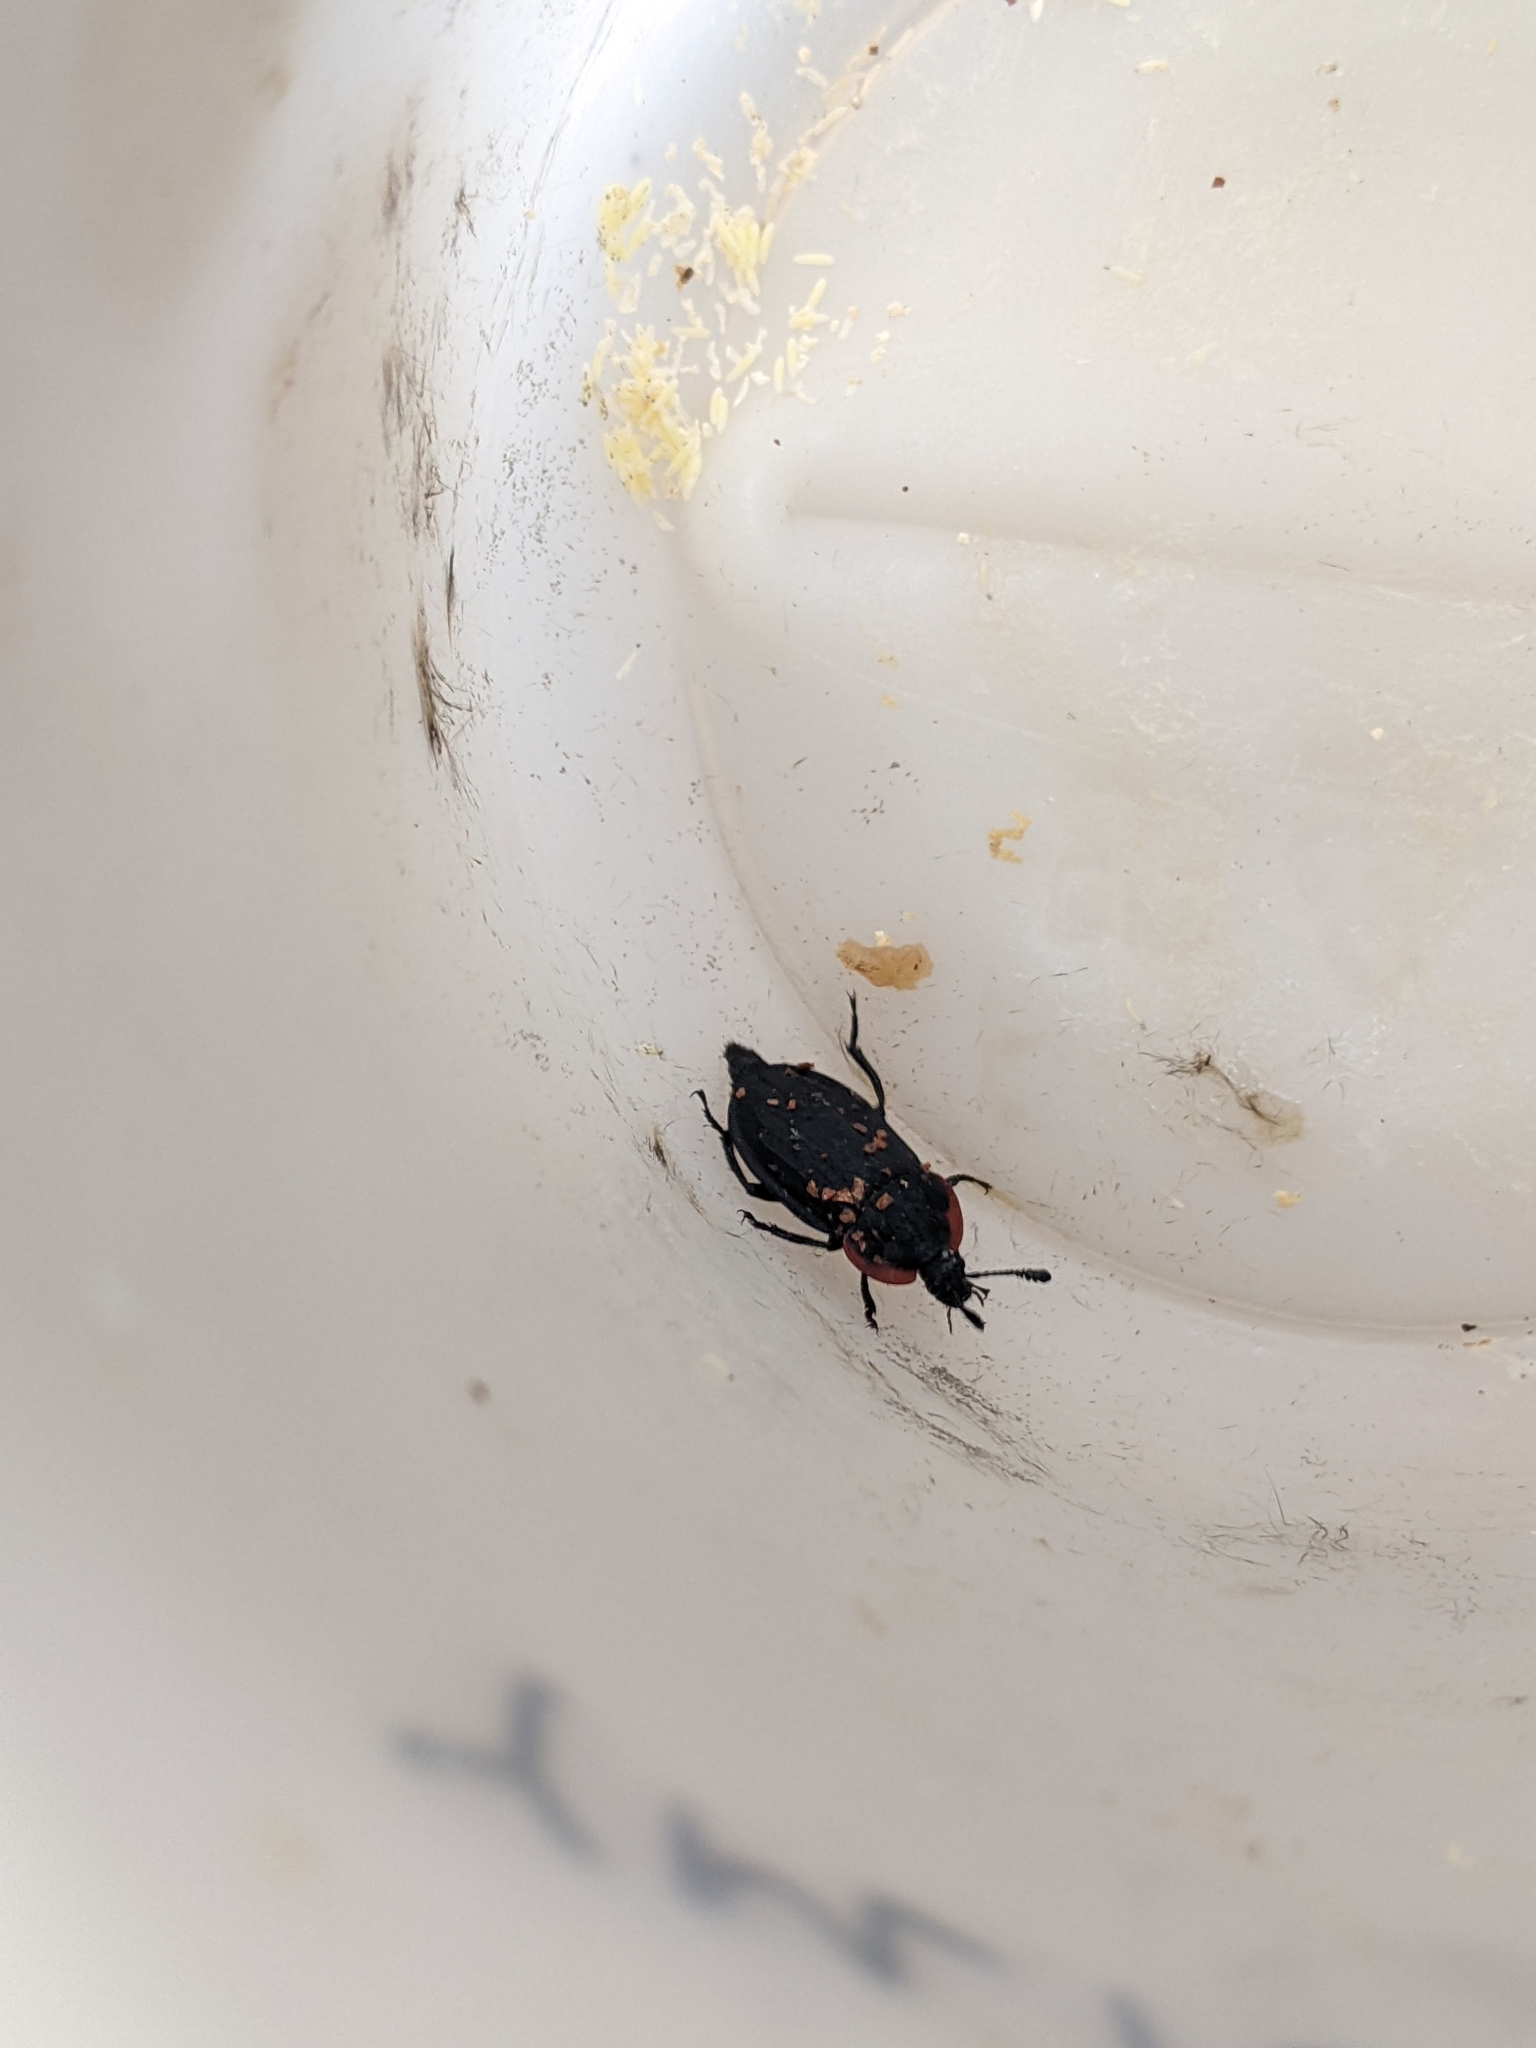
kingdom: Animalia
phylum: Arthropoda
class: Insecta
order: Coleoptera
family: Staphylinidae
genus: Oiceoptoma
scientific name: Oiceoptoma nakabayashii
